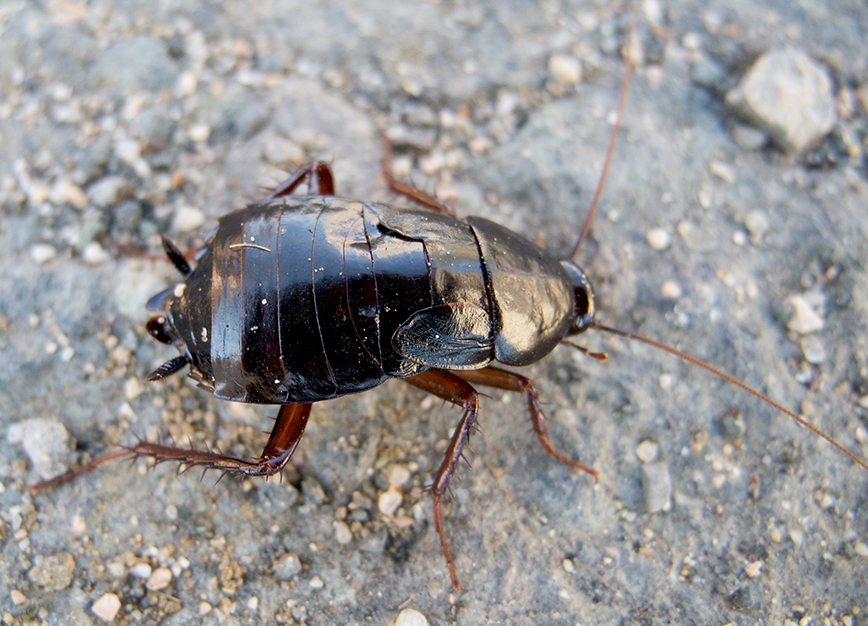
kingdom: Animalia
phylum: Arthropoda
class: Insecta
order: Blattodea
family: Blattidae
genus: Blatta
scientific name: Blatta orientalis
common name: Oriental cockroach
